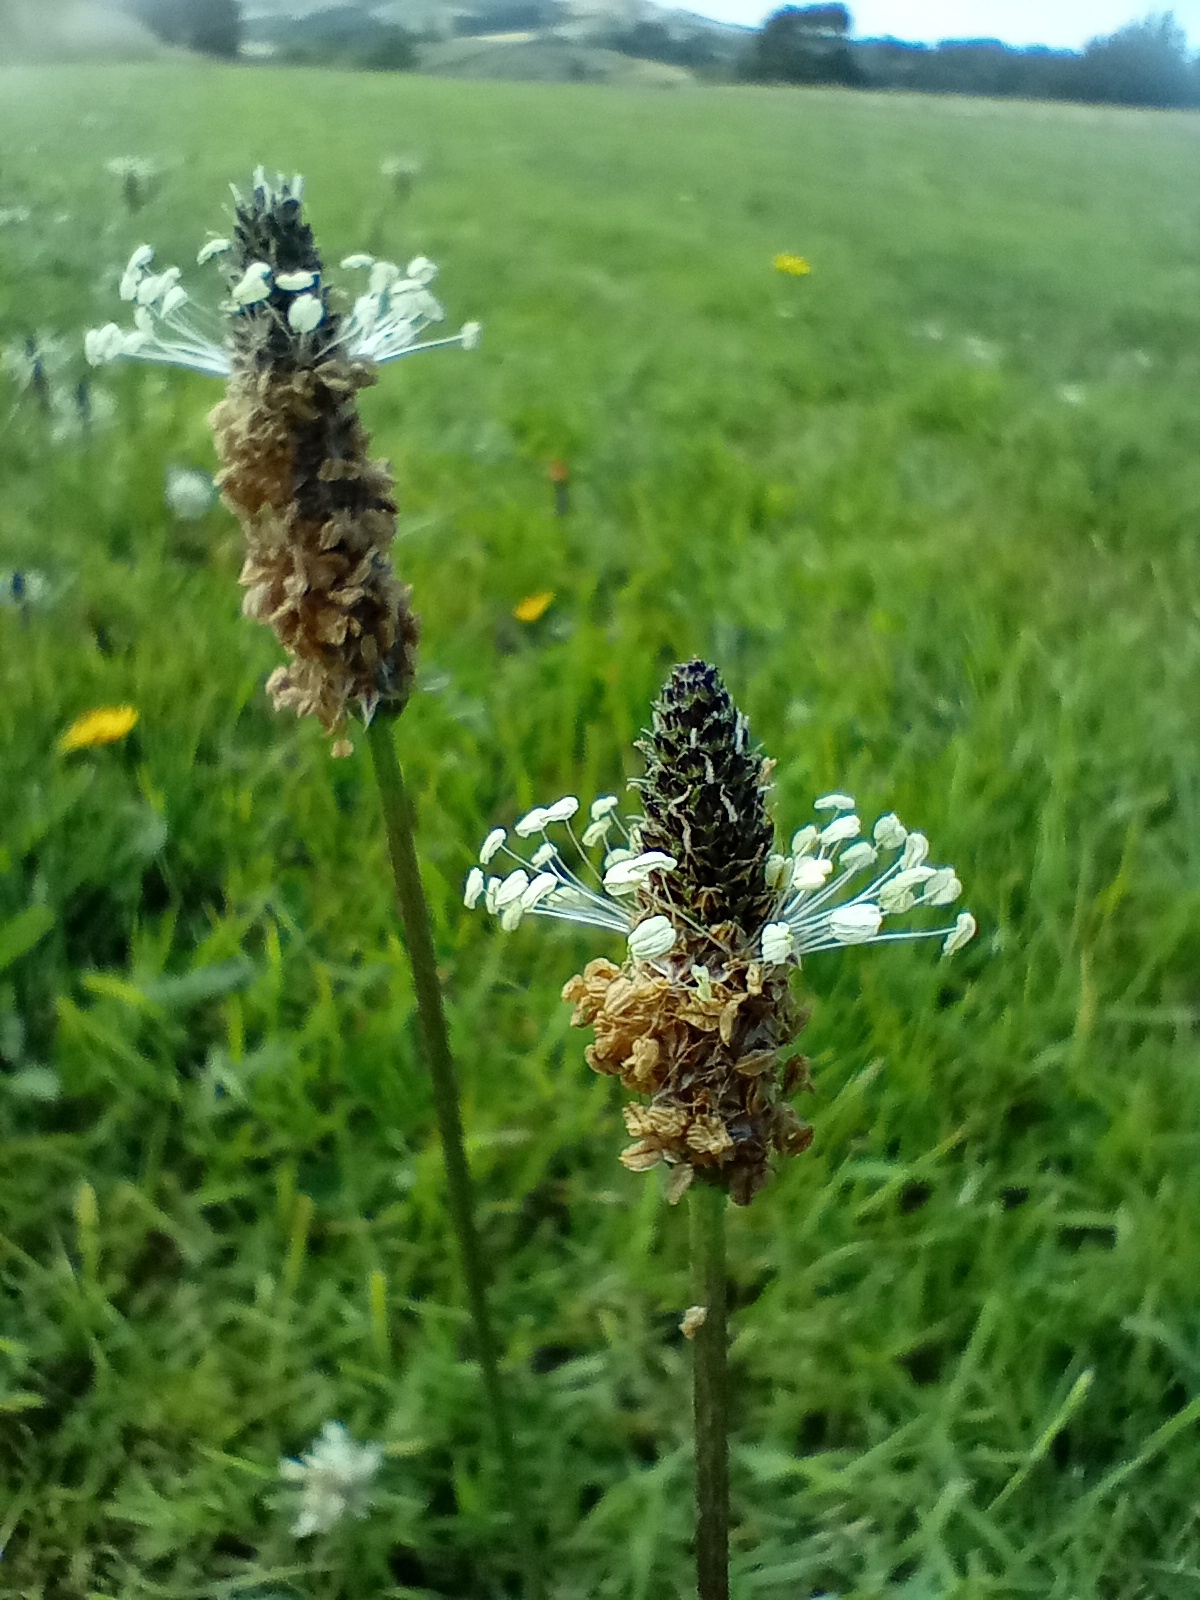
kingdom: Plantae
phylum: Tracheophyta
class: Magnoliopsida
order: Lamiales
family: Plantaginaceae
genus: Plantago
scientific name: Plantago lanceolata
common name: Ribwort plantain
